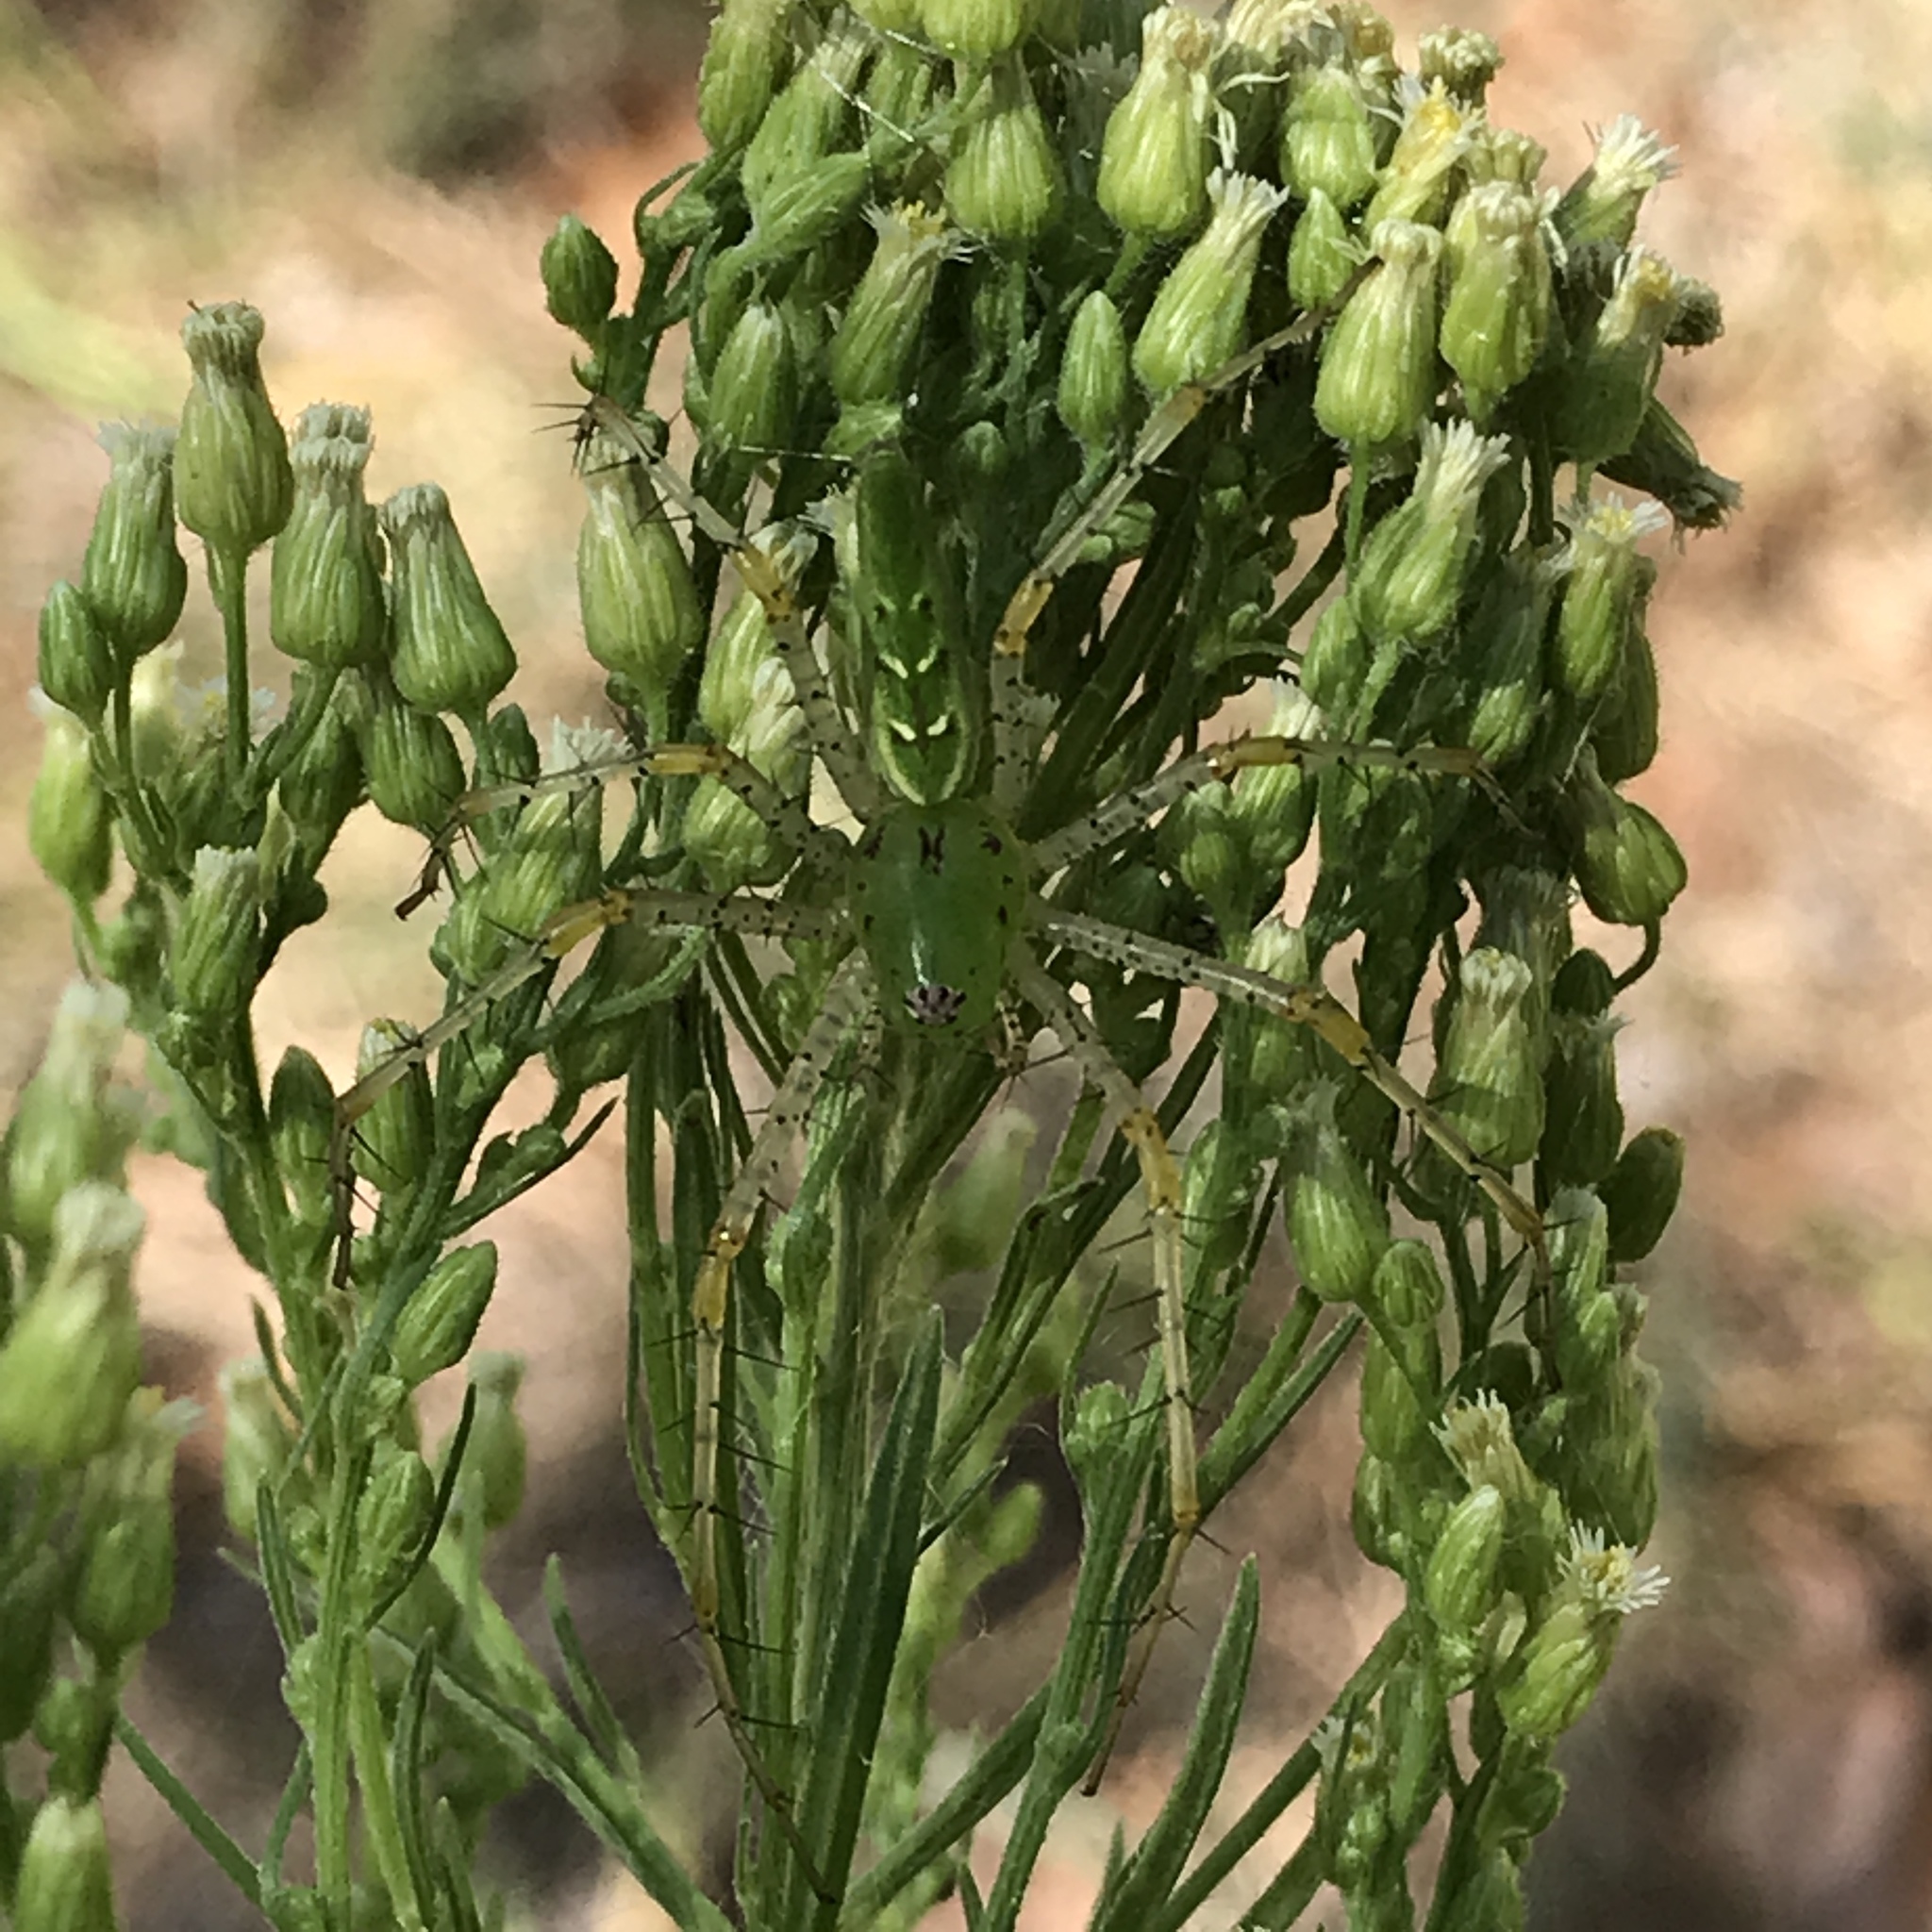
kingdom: Animalia
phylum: Arthropoda
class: Arachnida
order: Araneae
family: Oxyopidae
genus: Peucetia
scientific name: Peucetia viridans
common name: Lynx spiders
